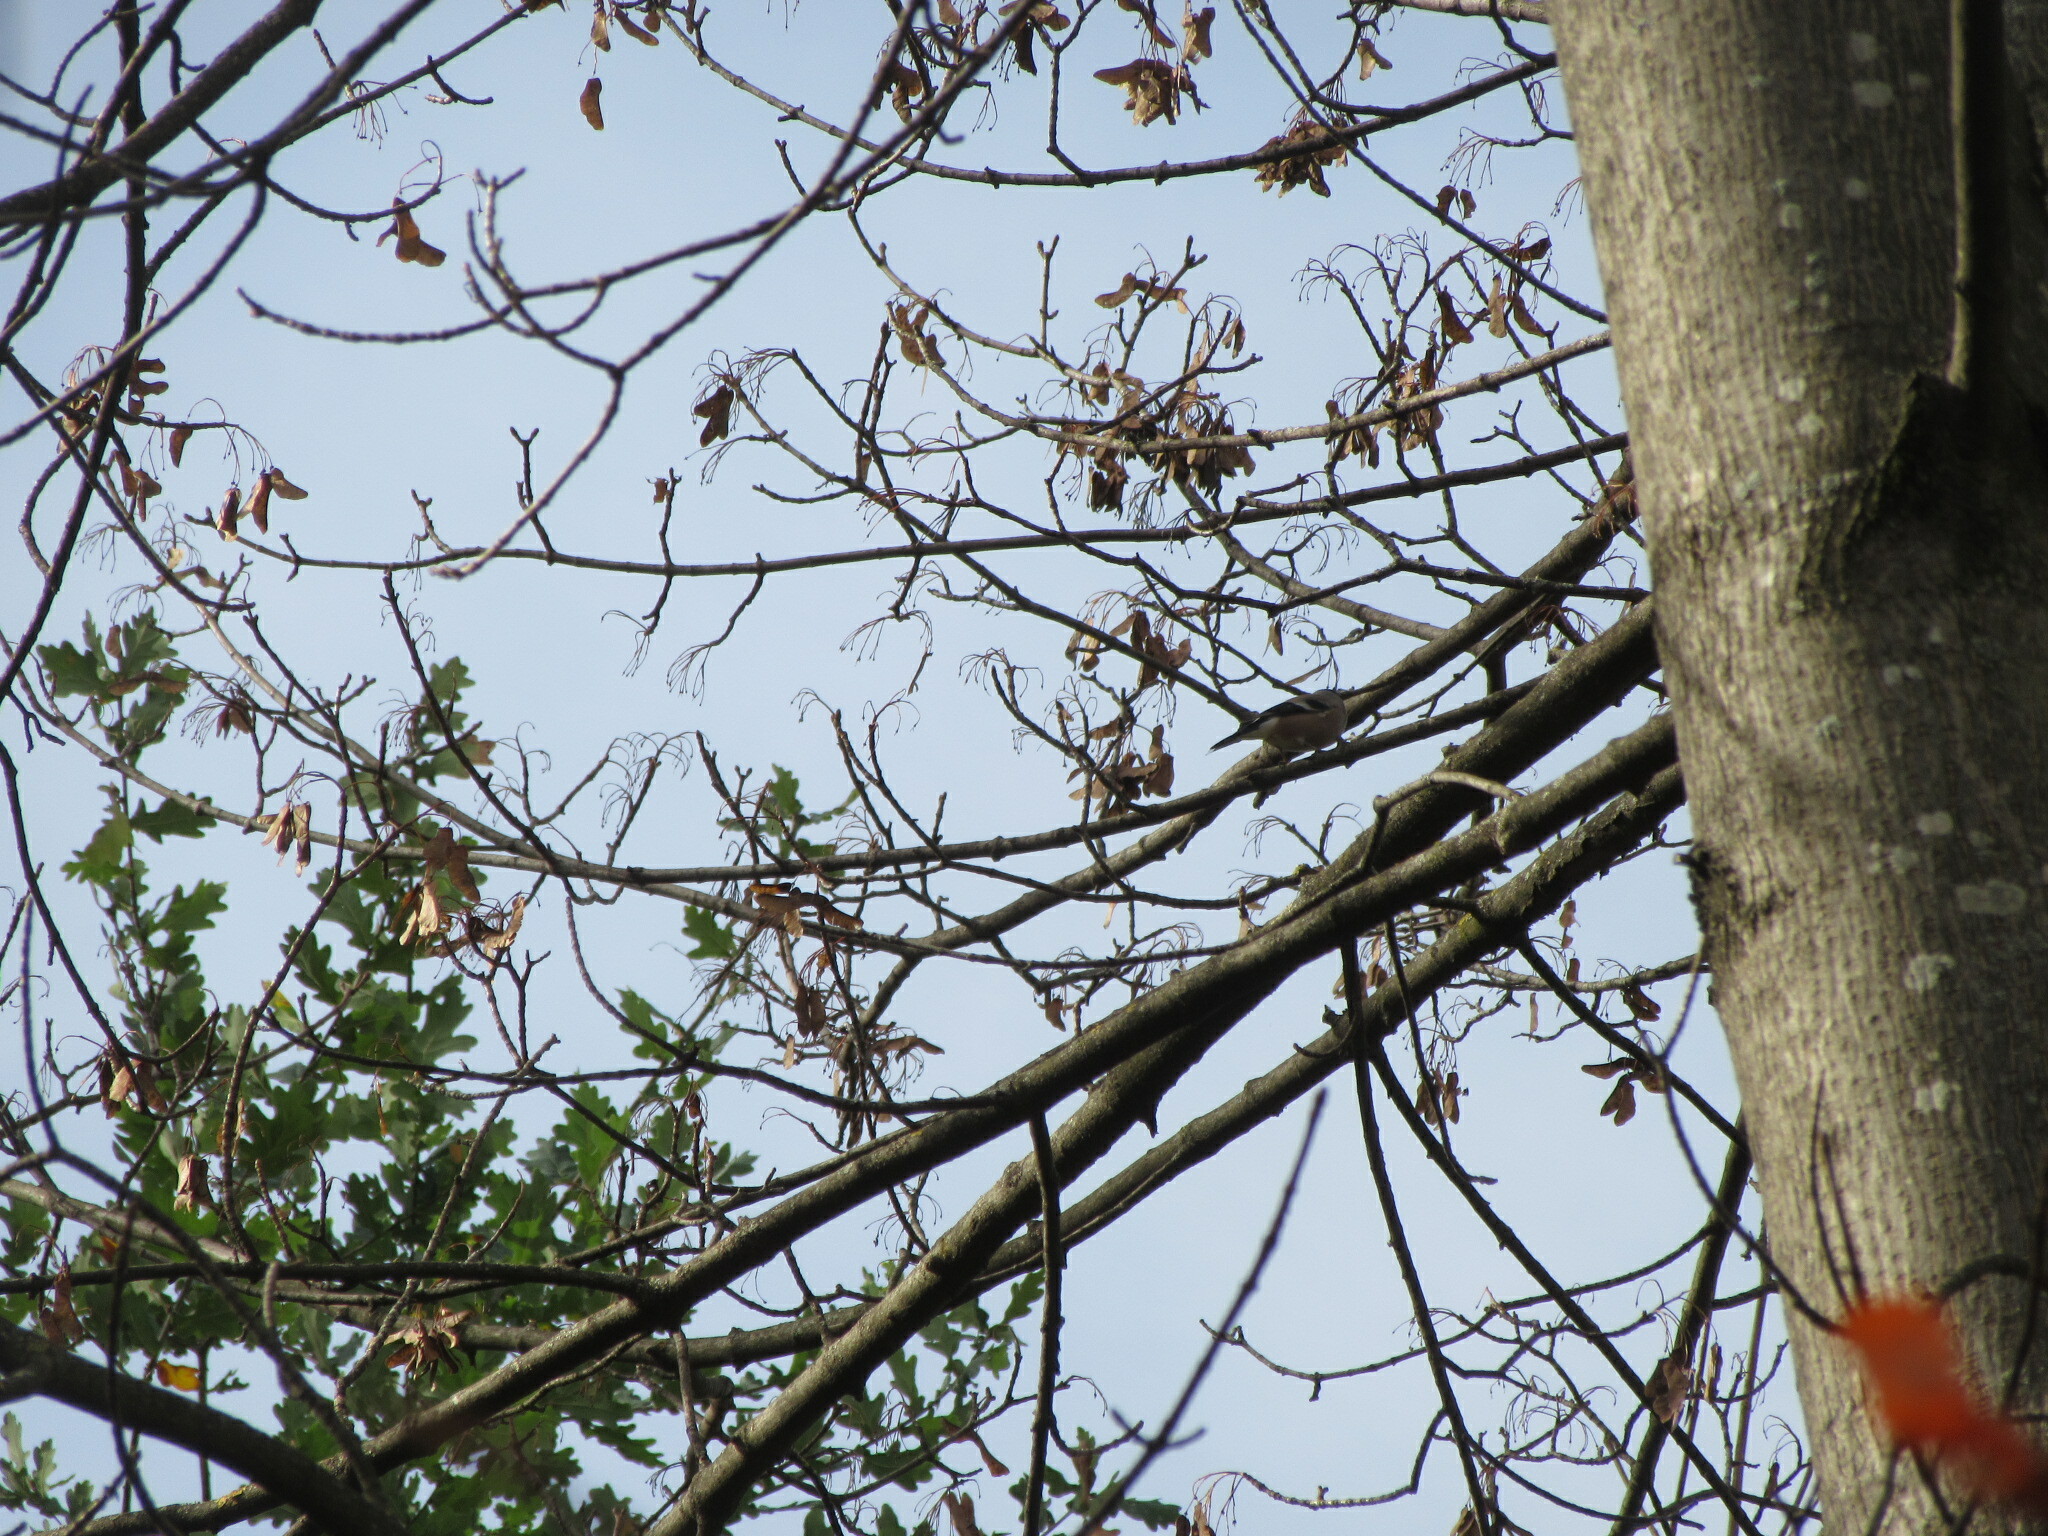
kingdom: Animalia
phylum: Chordata
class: Aves
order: Passeriformes
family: Fringillidae
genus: Pyrrhula
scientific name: Pyrrhula pyrrhula
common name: Eurasian bullfinch
